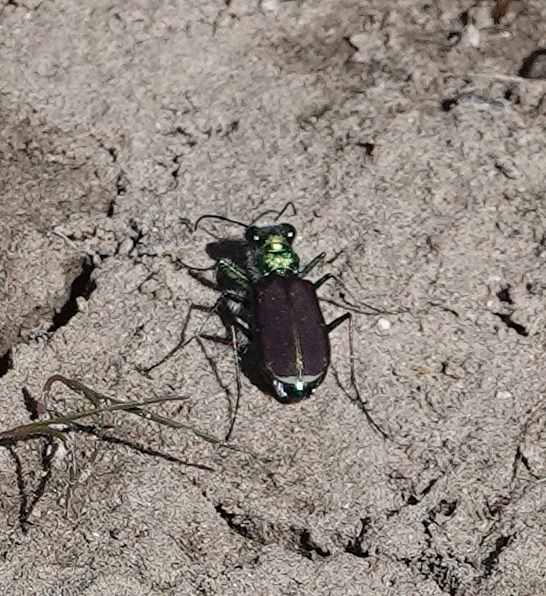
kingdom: Animalia
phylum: Arthropoda
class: Insecta
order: Coleoptera
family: Carabidae
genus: Cicindela
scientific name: Cicindela splendida
